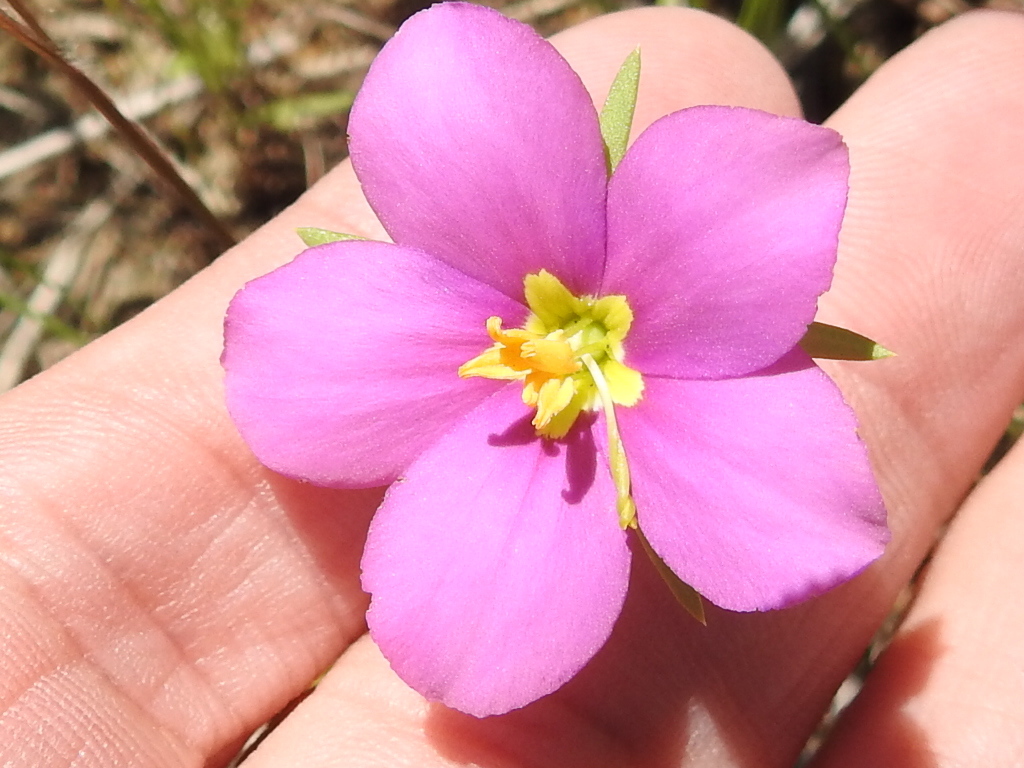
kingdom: Plantae
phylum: Tracheophyta
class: Magnoliopsida
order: Gentianales
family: Gentianaceae
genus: Sabatia
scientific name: Sabatia campestris
